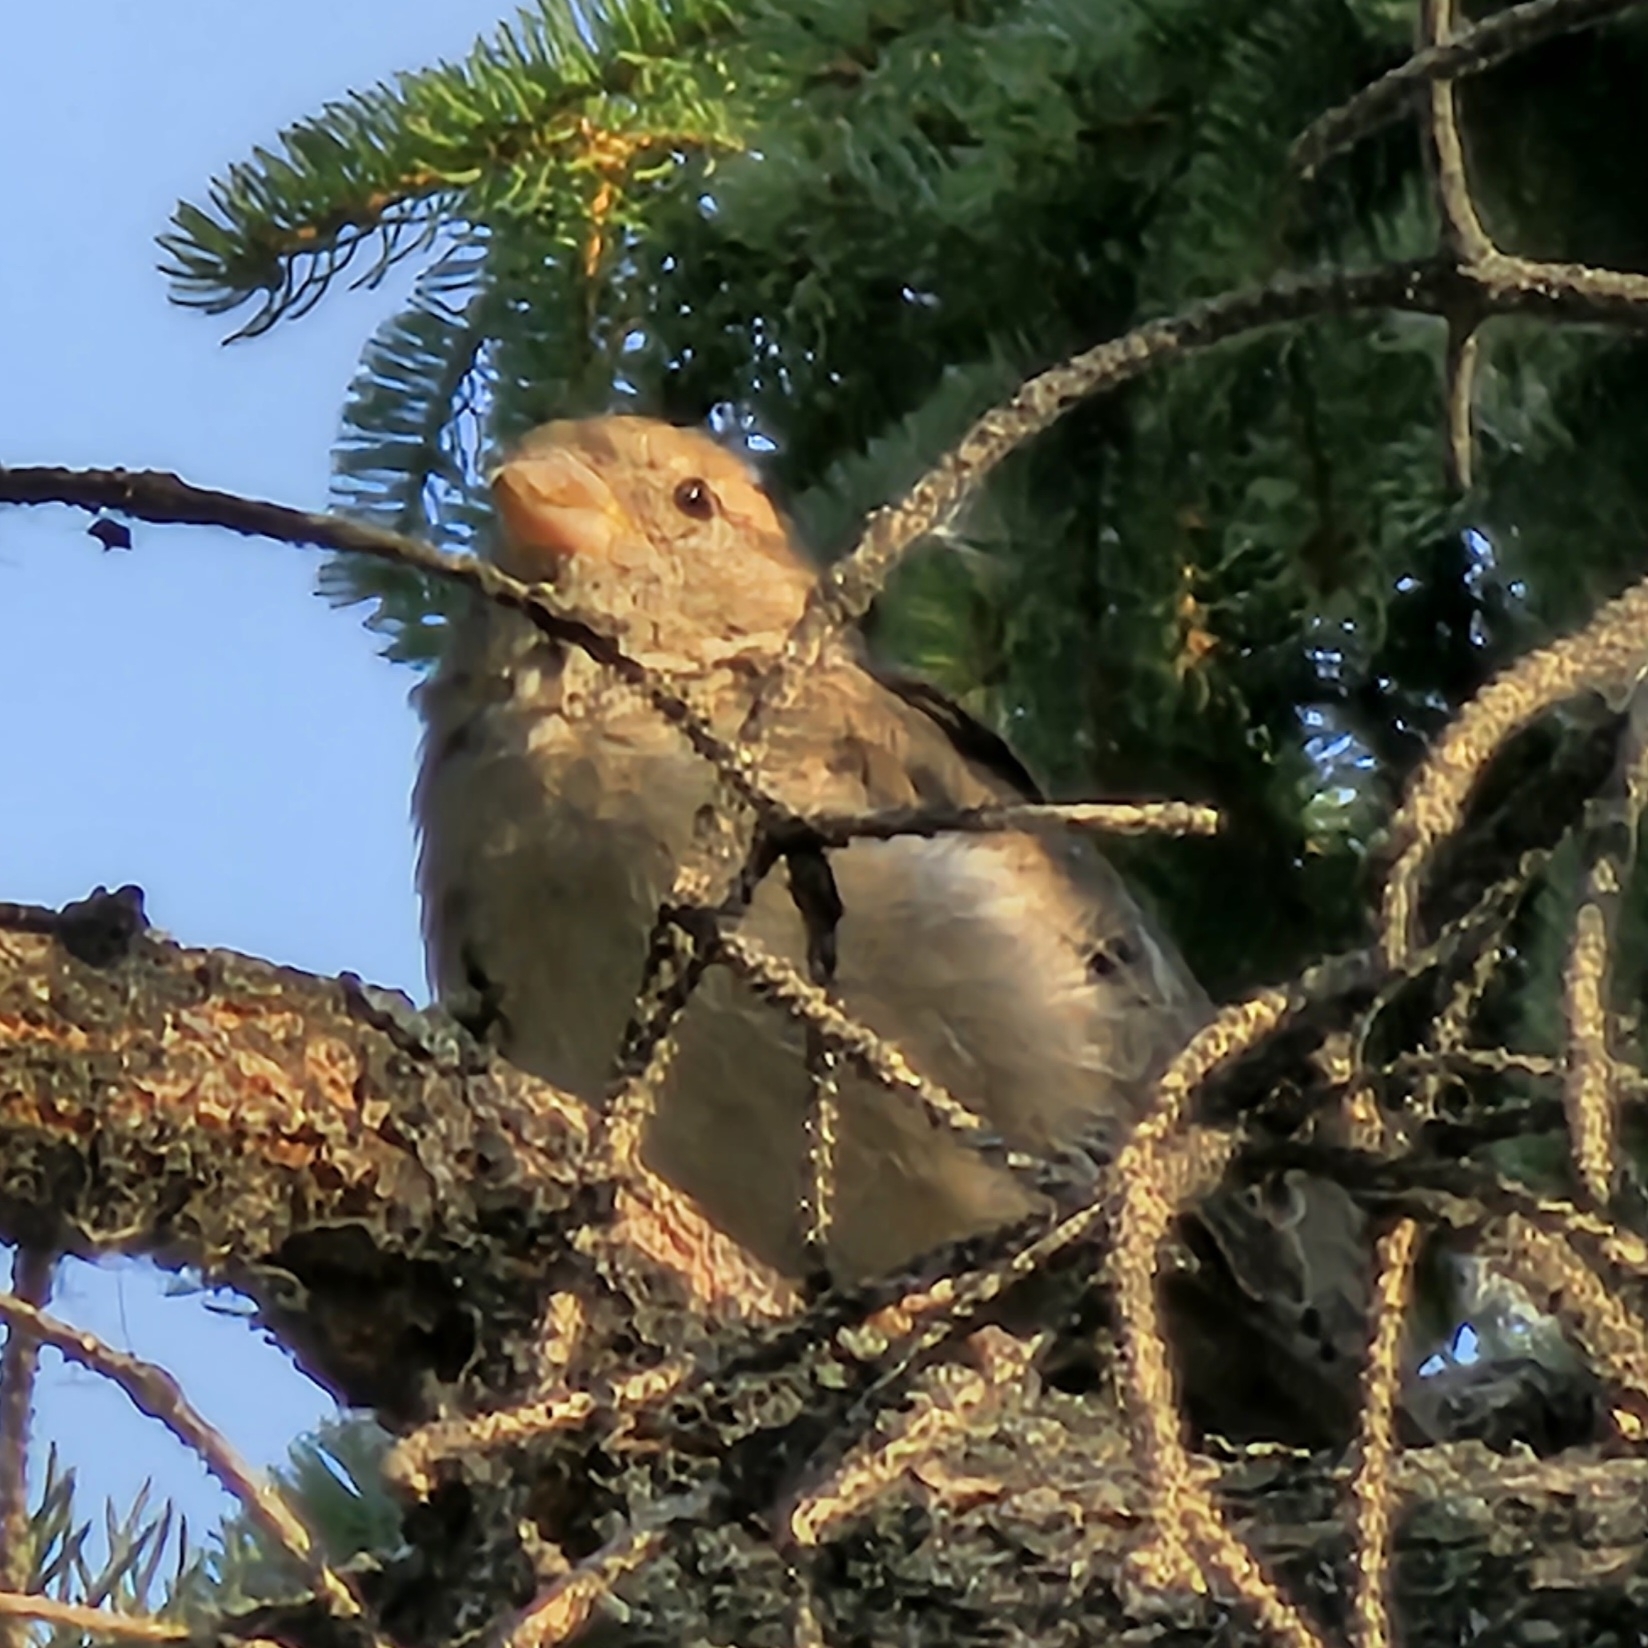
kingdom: Animalia
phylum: Chordata
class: Aves
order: Passeriformes
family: Passeridae
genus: Passer
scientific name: Passer domesticus
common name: House sparrow
